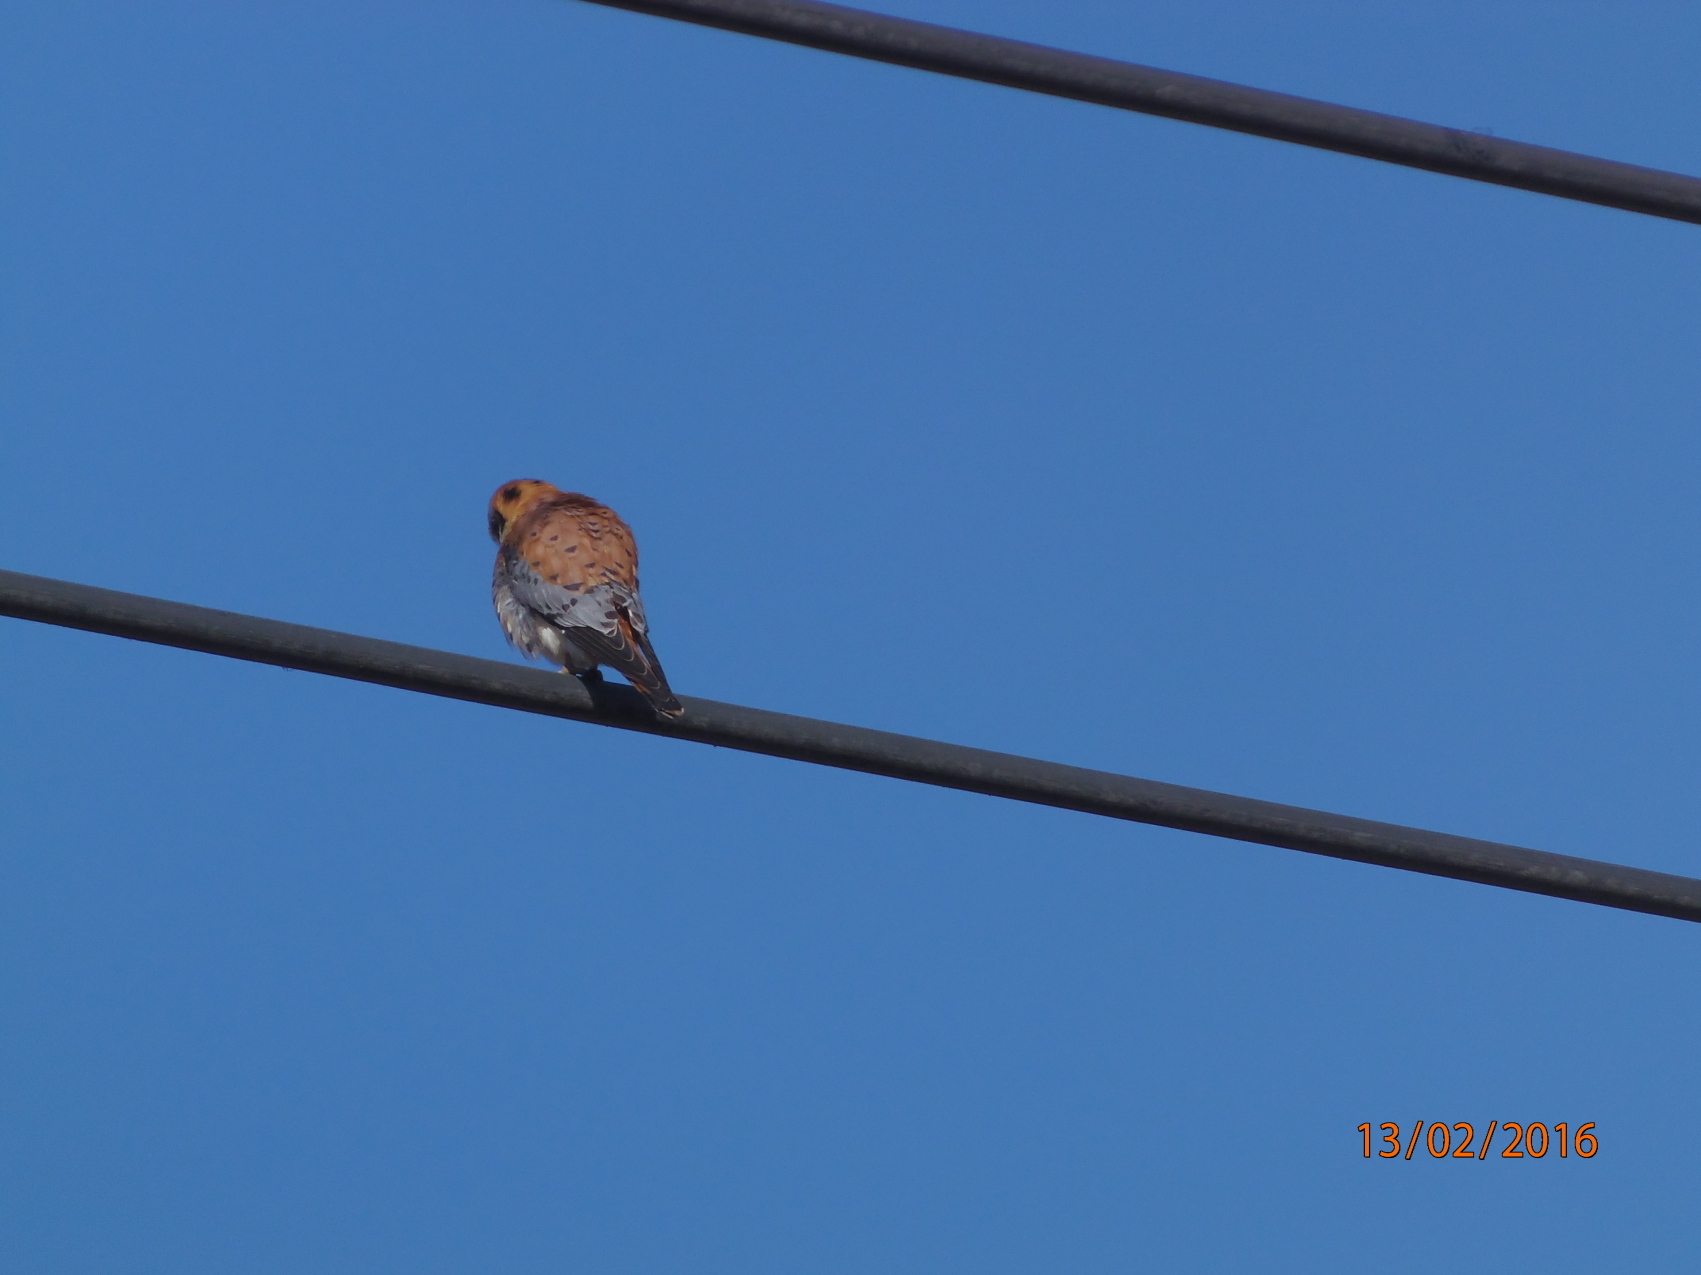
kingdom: Animalia
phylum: Chordata
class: Aves
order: Falconiformes
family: Falconidae
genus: Falco
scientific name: Falco sparverius
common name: American kestrel
